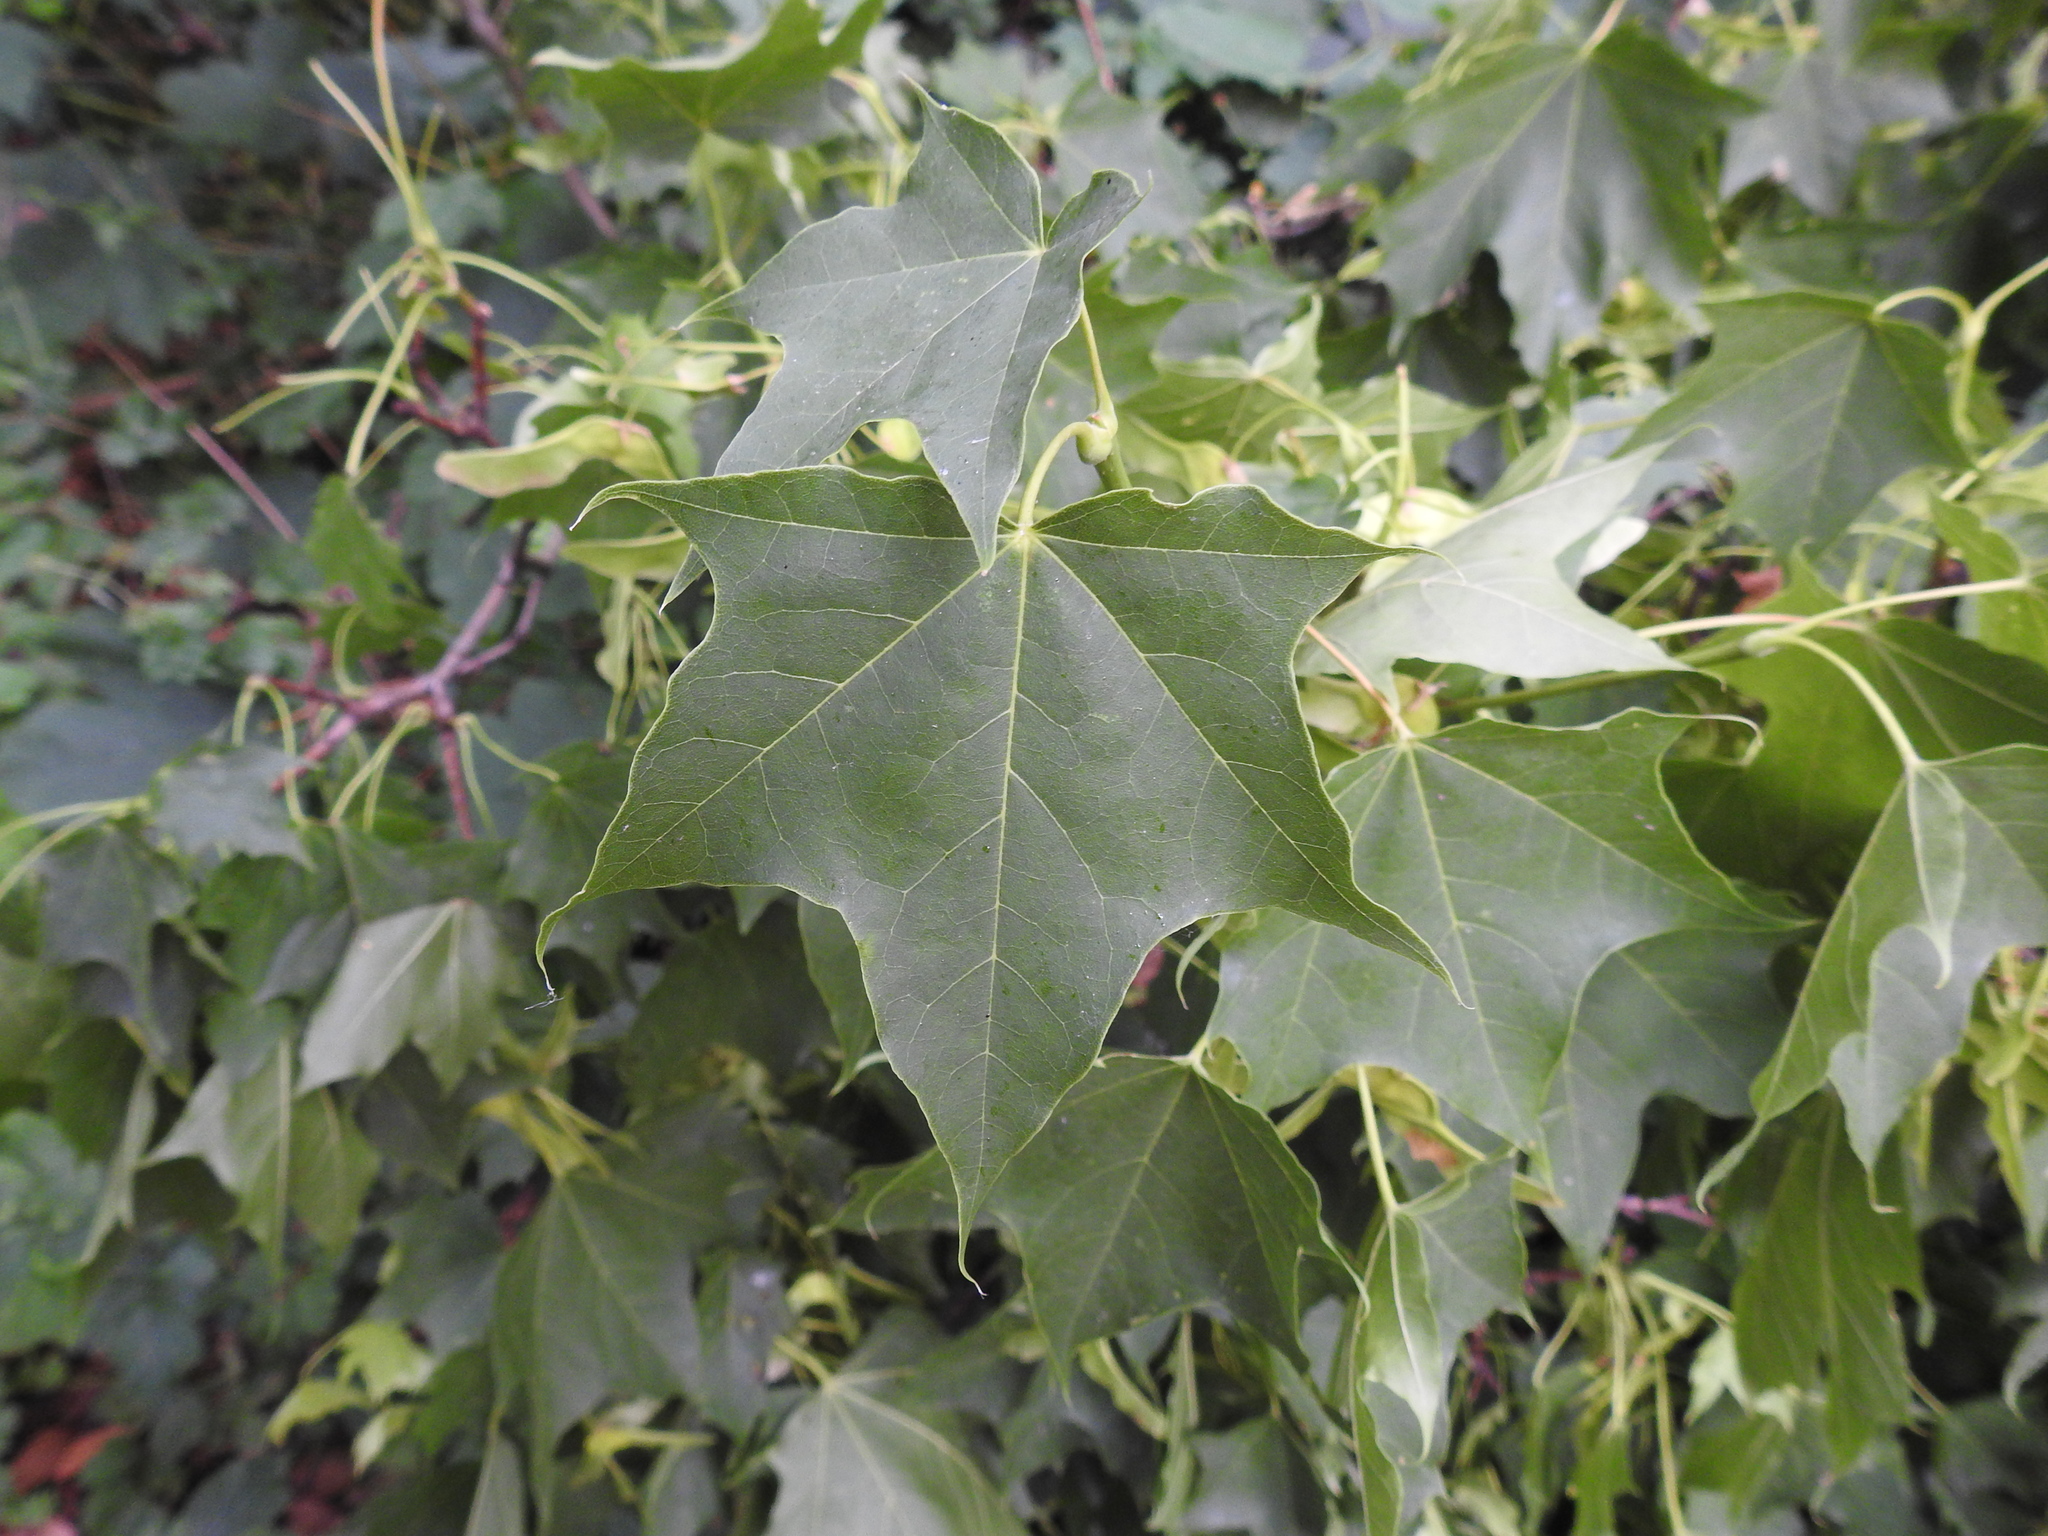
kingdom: Plantae
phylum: Tracheophyta
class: Magnoliopsida
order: Sapindales
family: Sapindaceae
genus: Acer
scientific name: Acer cappadocicum
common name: Cappadocian maple
